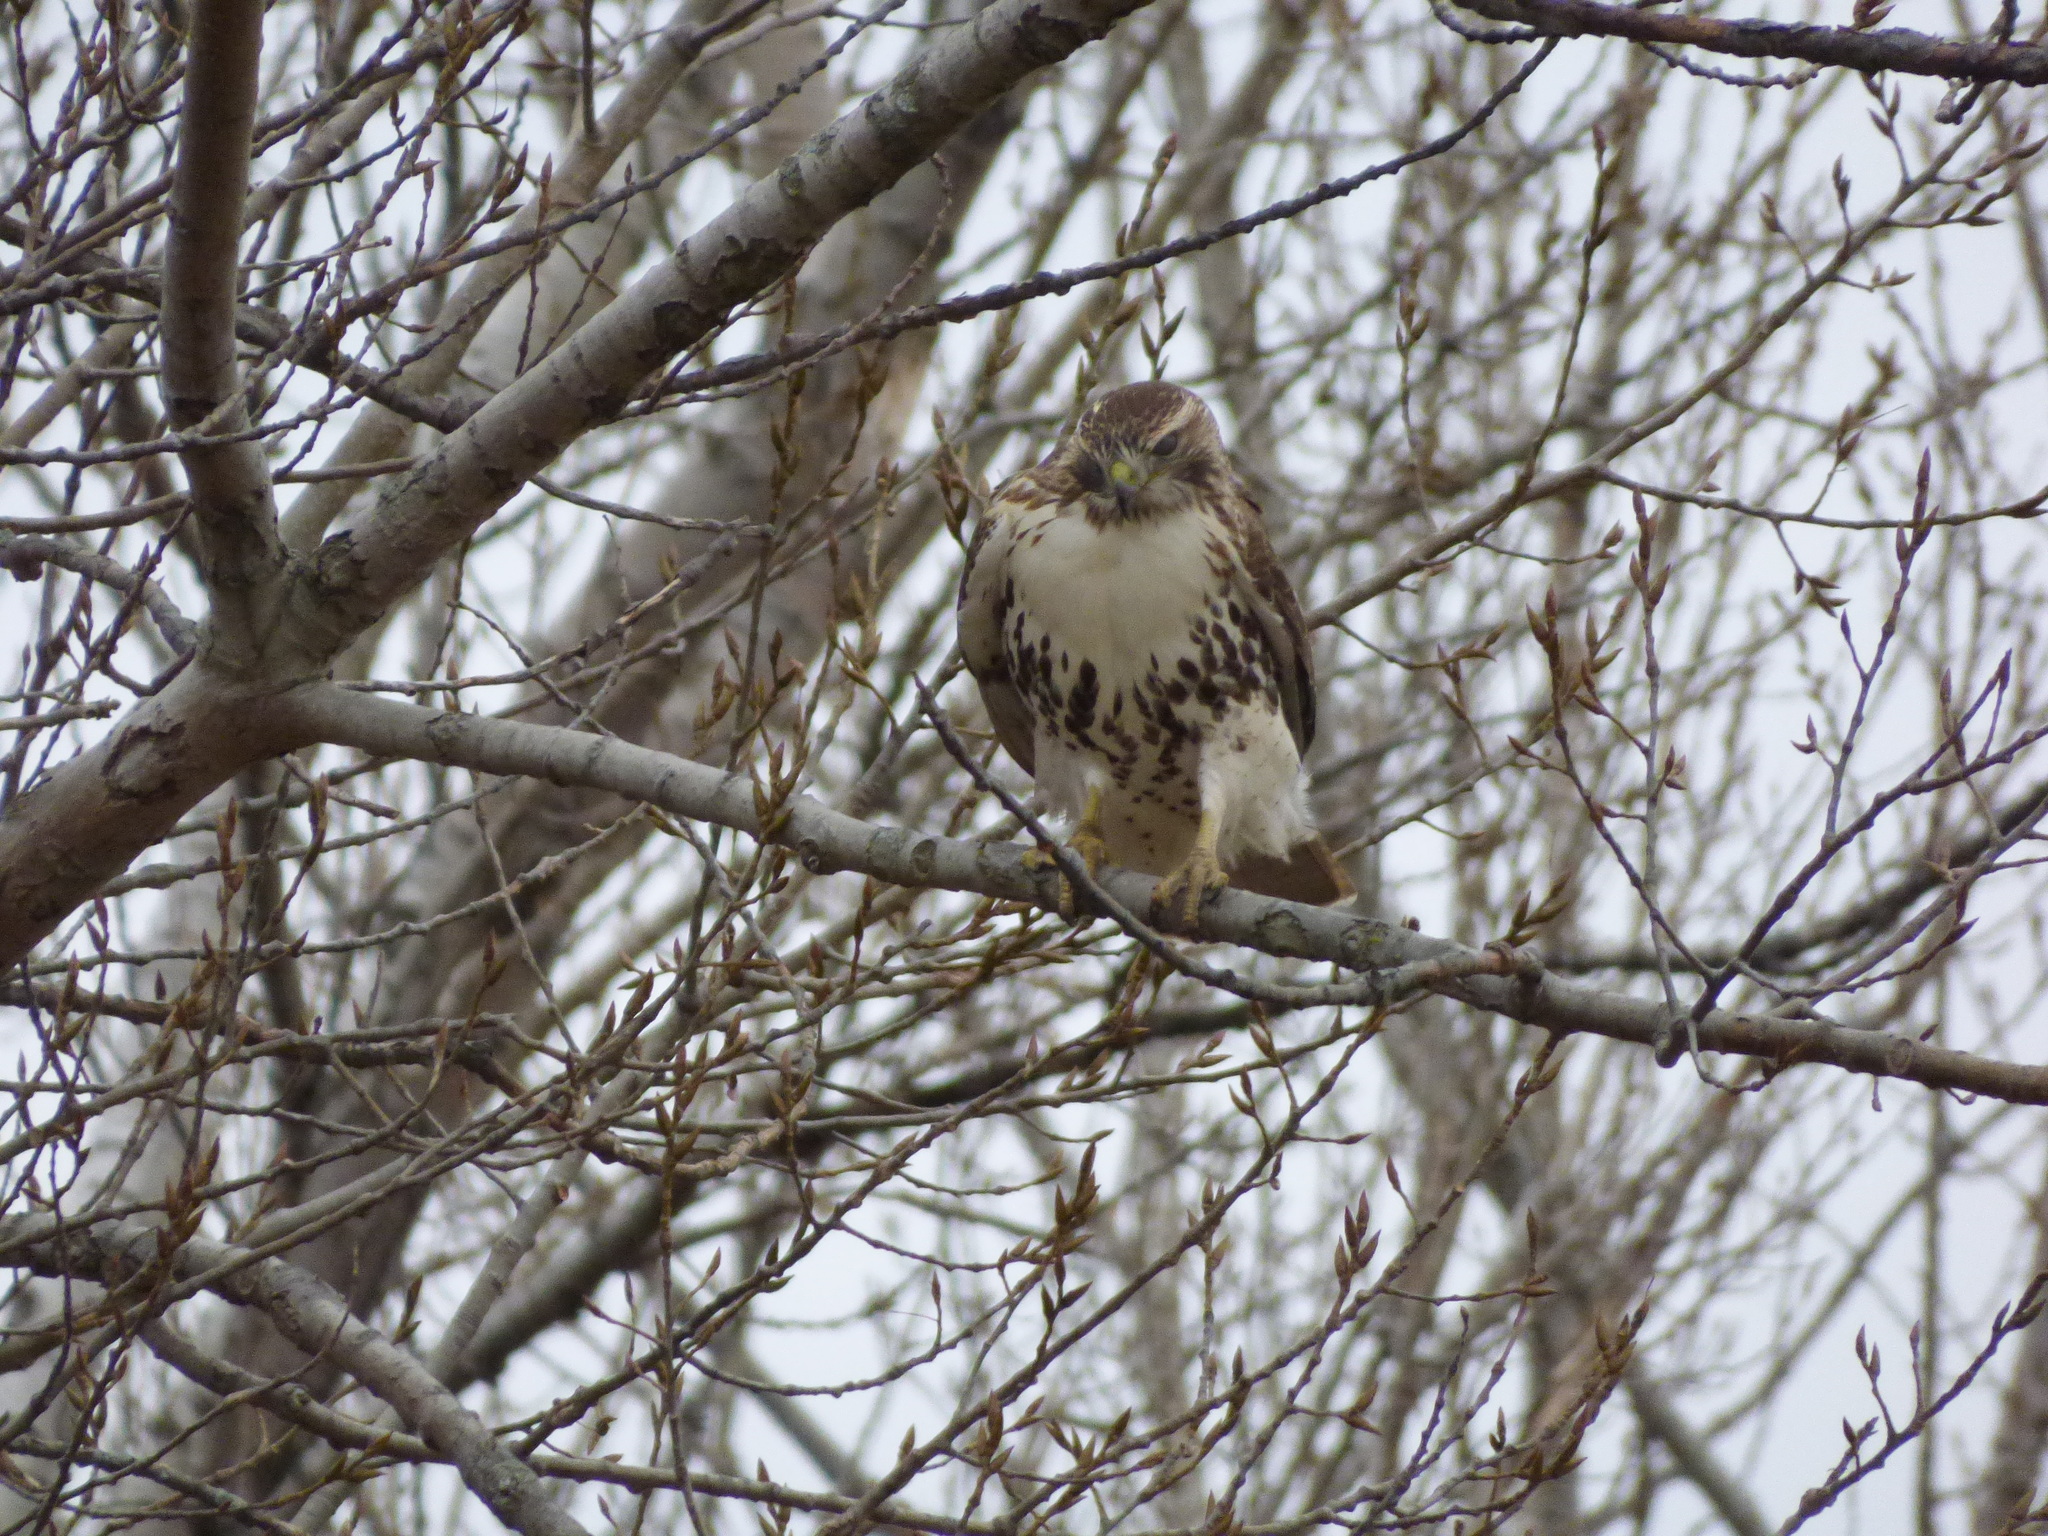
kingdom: Animalia
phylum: Chordata
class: Aves
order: Accipitriformes
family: Accipitridae
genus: Buteo
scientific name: Buteo jamaicensis
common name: Red-tailed hawk
